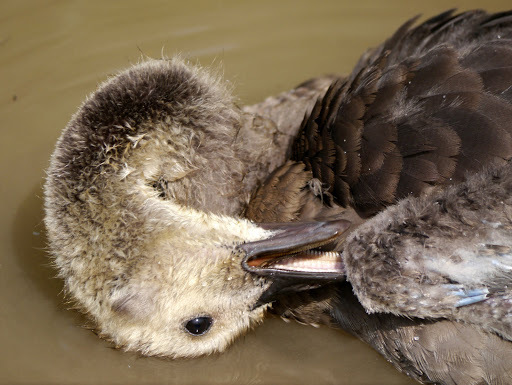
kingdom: Animalia
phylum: Chordata
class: Aves
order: Anseriformes
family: Anatidae
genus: Branta
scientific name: Branta canadensis
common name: Canada goose
